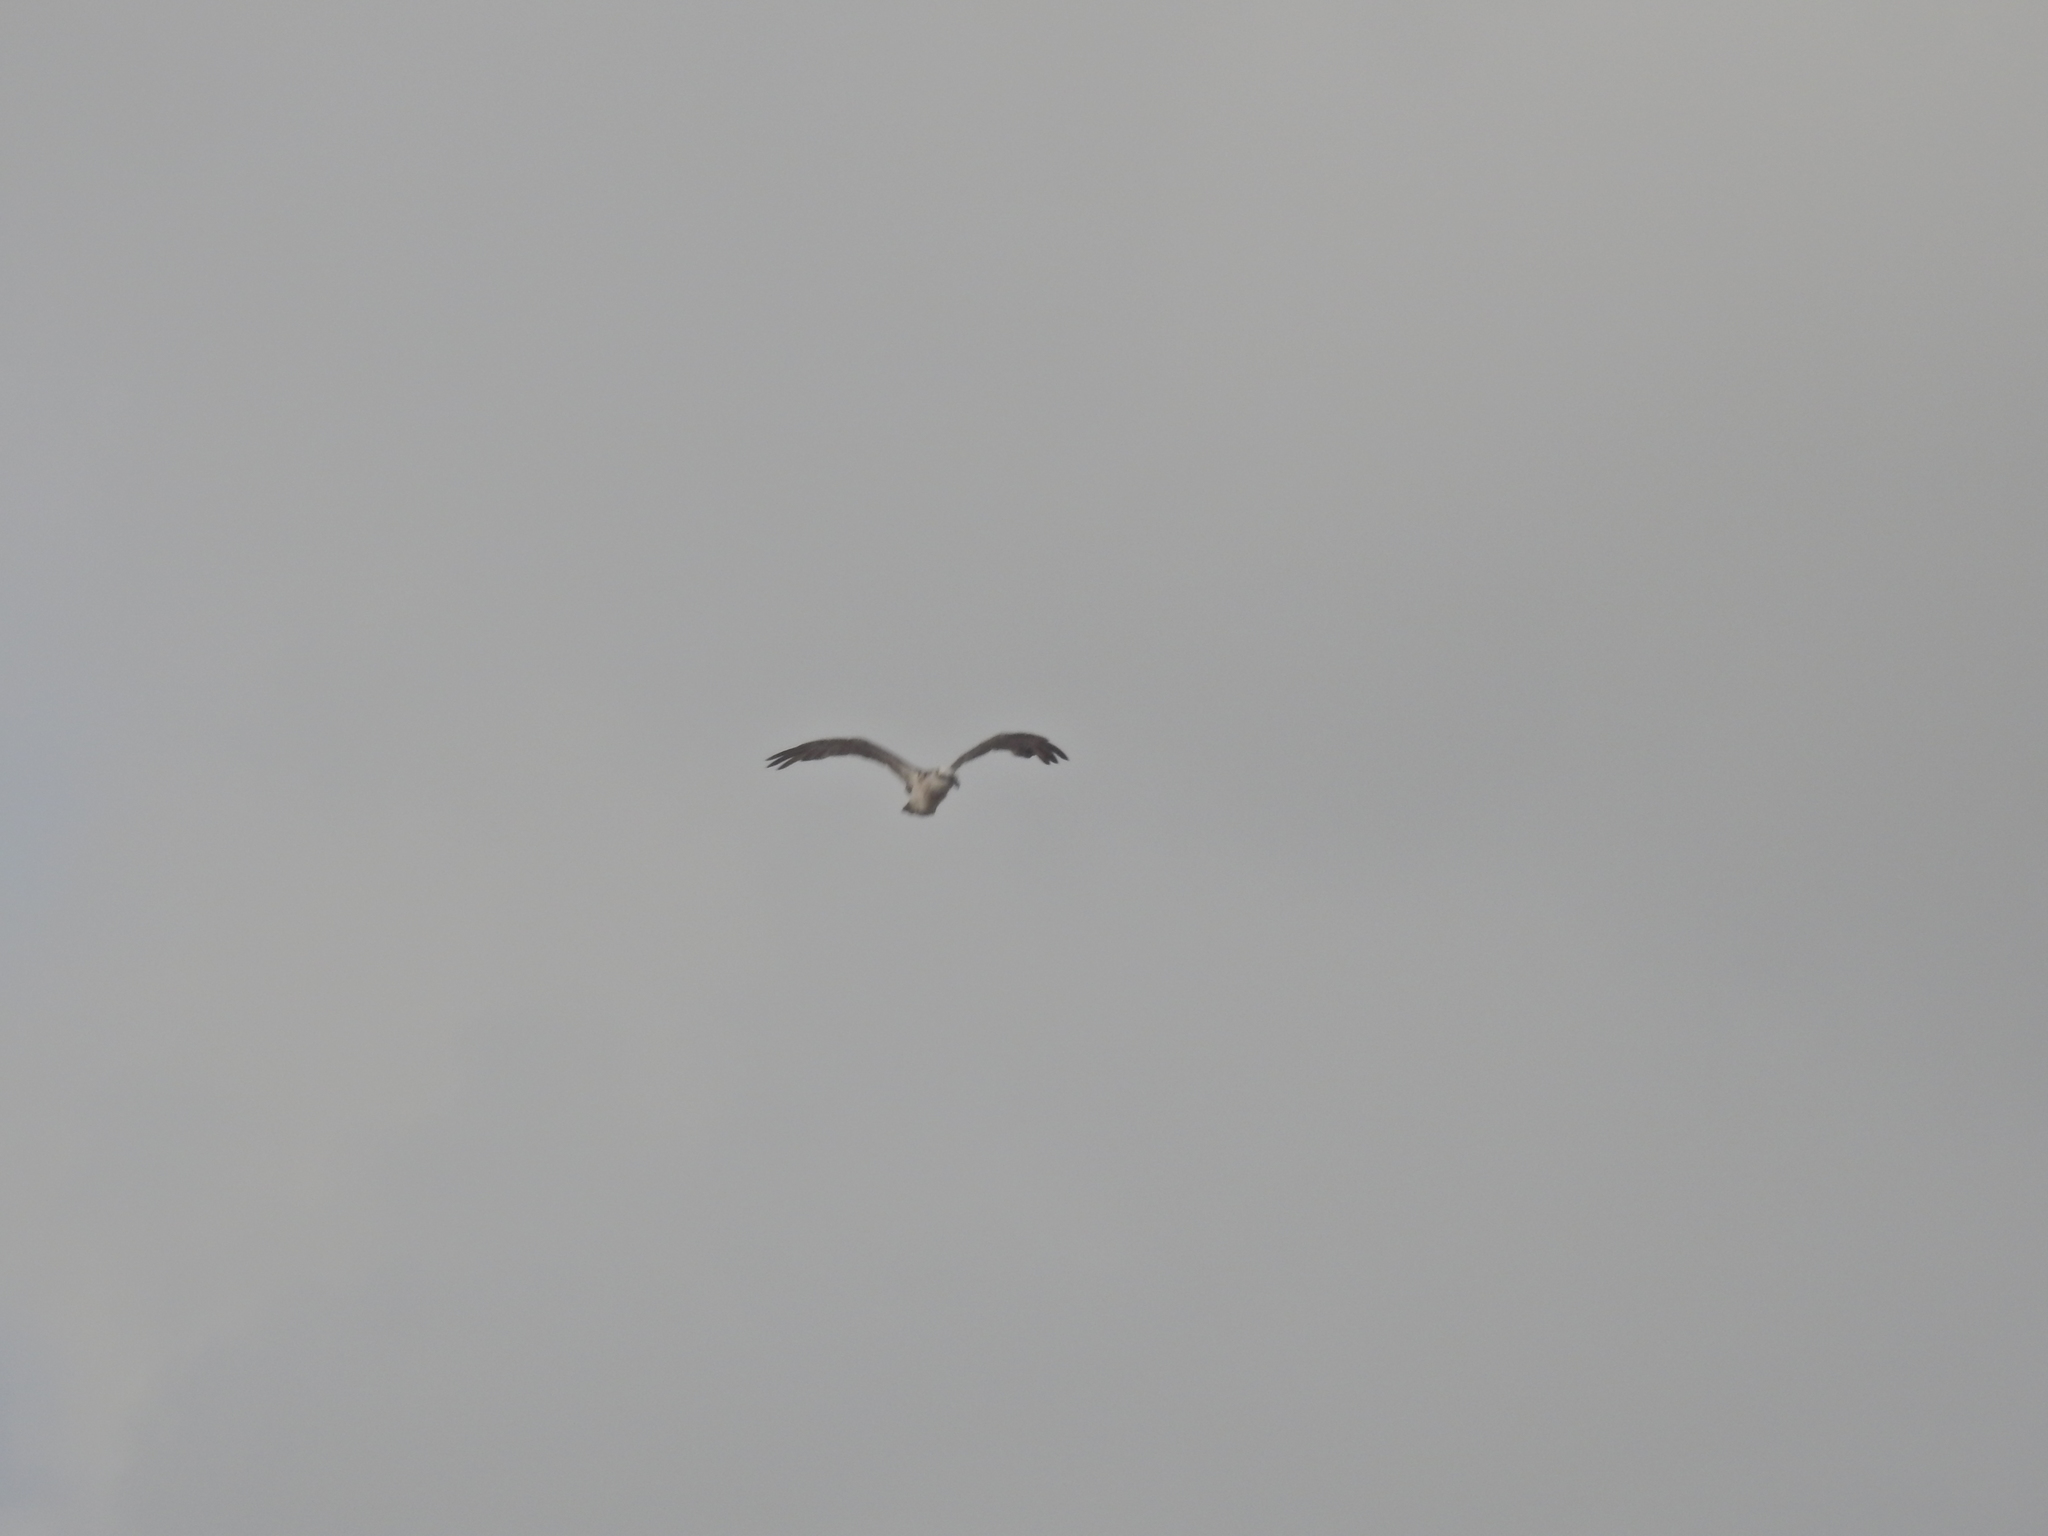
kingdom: Animalia
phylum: Chordata
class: Aves
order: Accipitriformes
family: Pandionidae
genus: Pandion
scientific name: Pandion cristatus
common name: Eastern osprey
